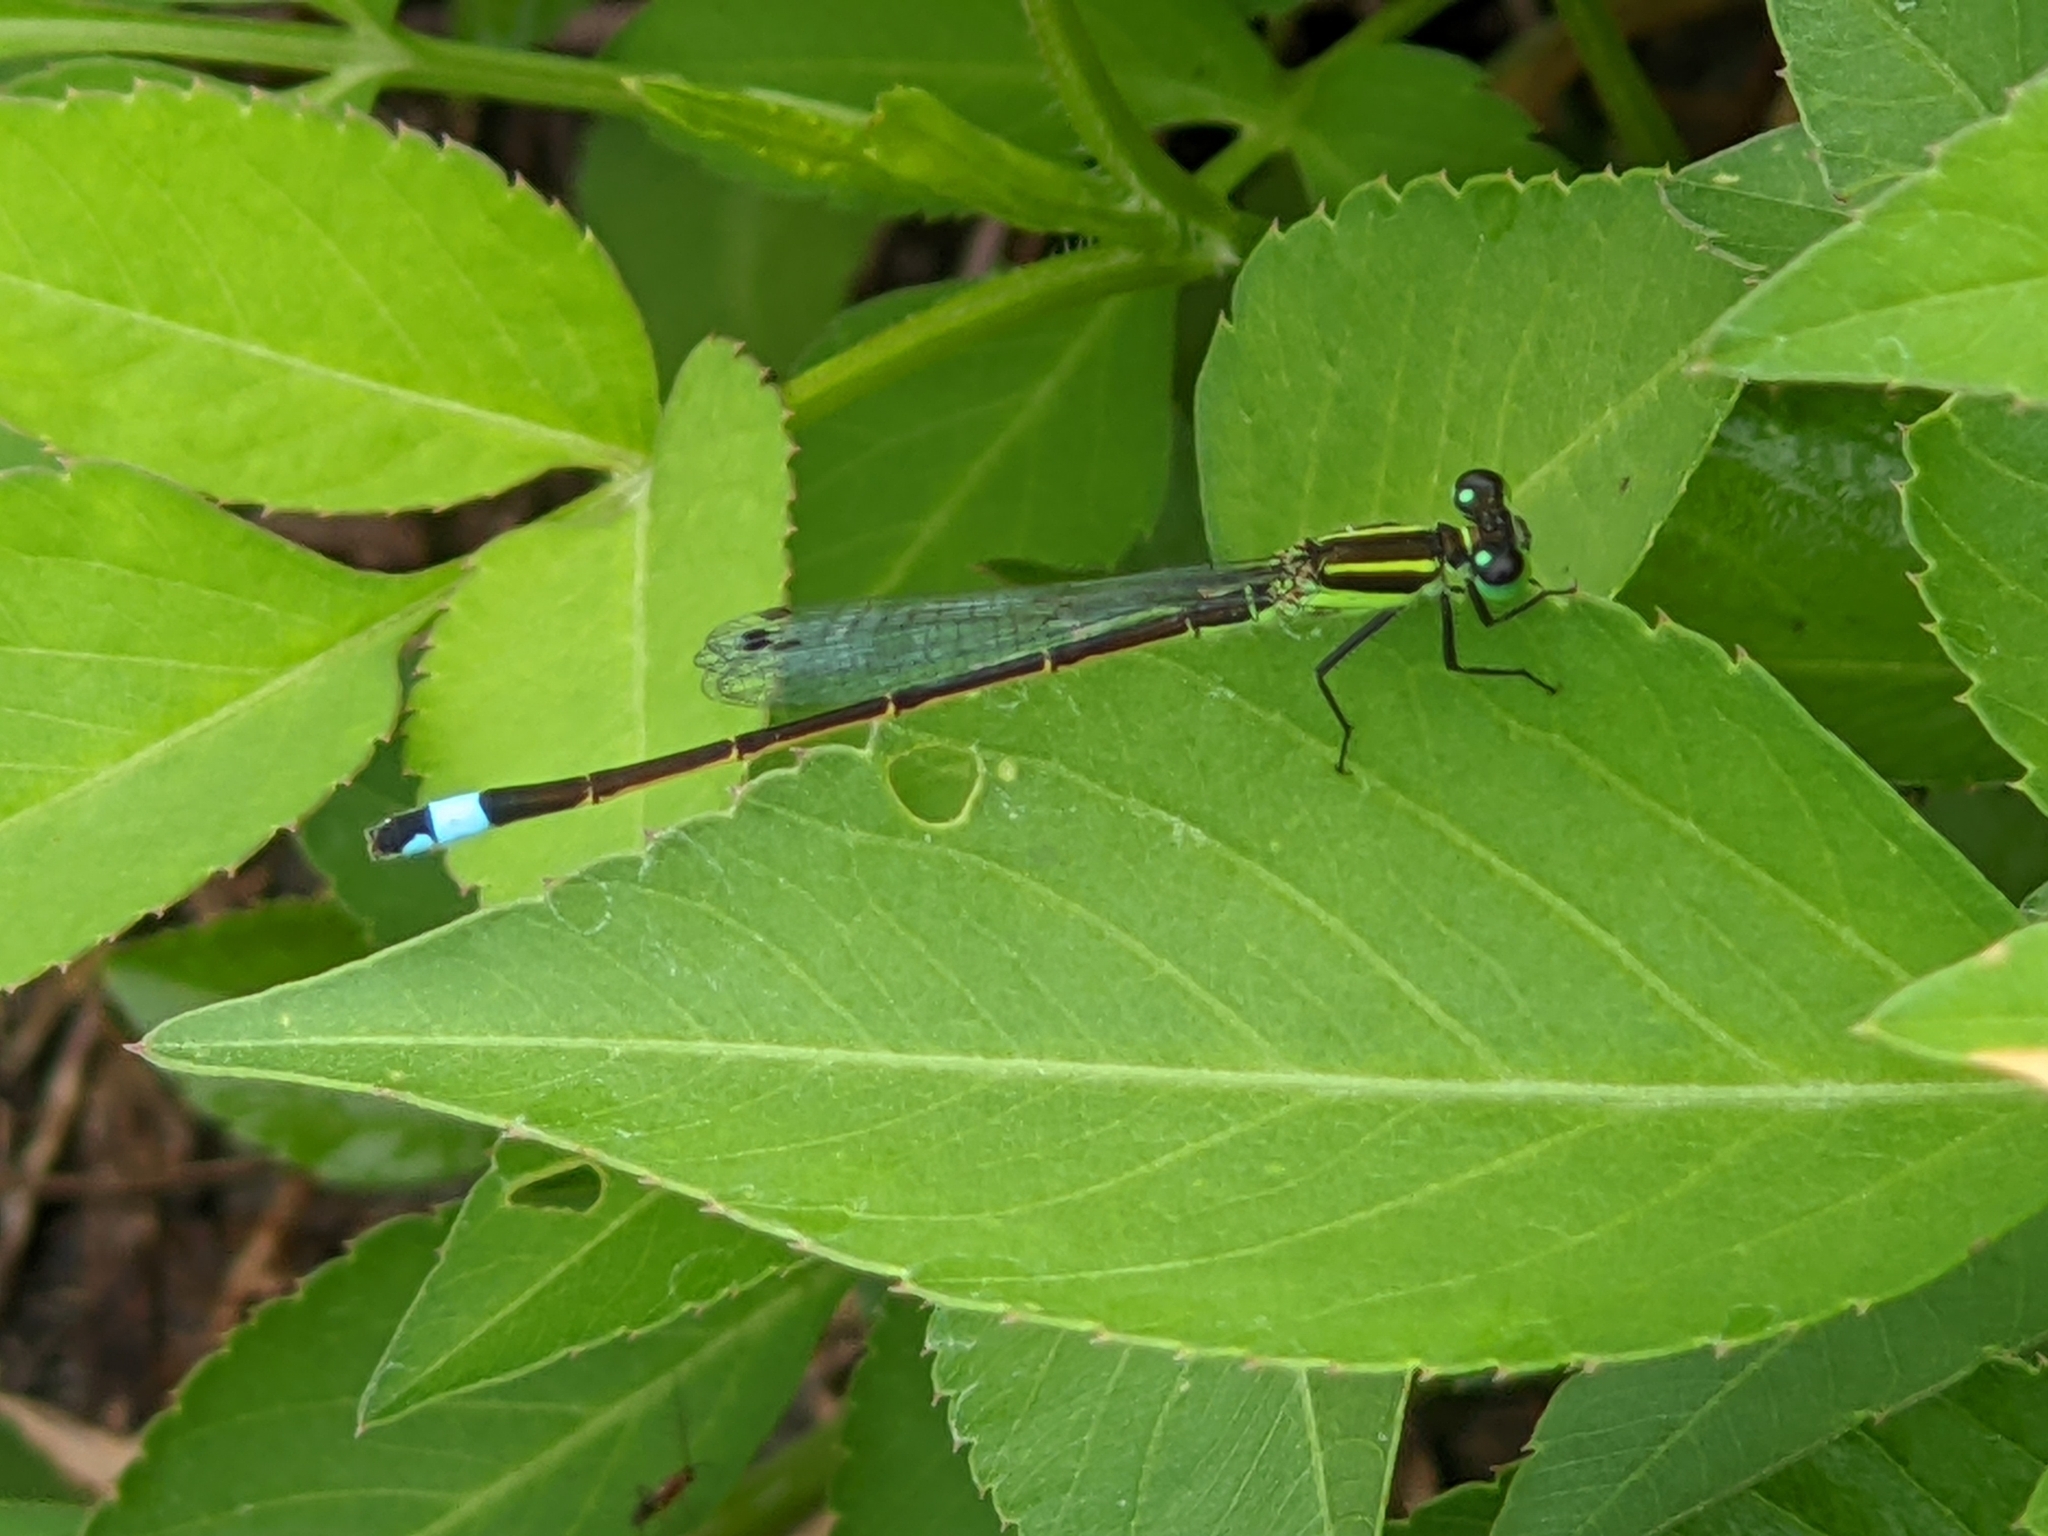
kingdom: Animalia
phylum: Arthropoda
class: Insecta
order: Odonata
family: Coenagrionidae
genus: Ischnura
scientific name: Ischnura ramburii
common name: Rambur's forktail
